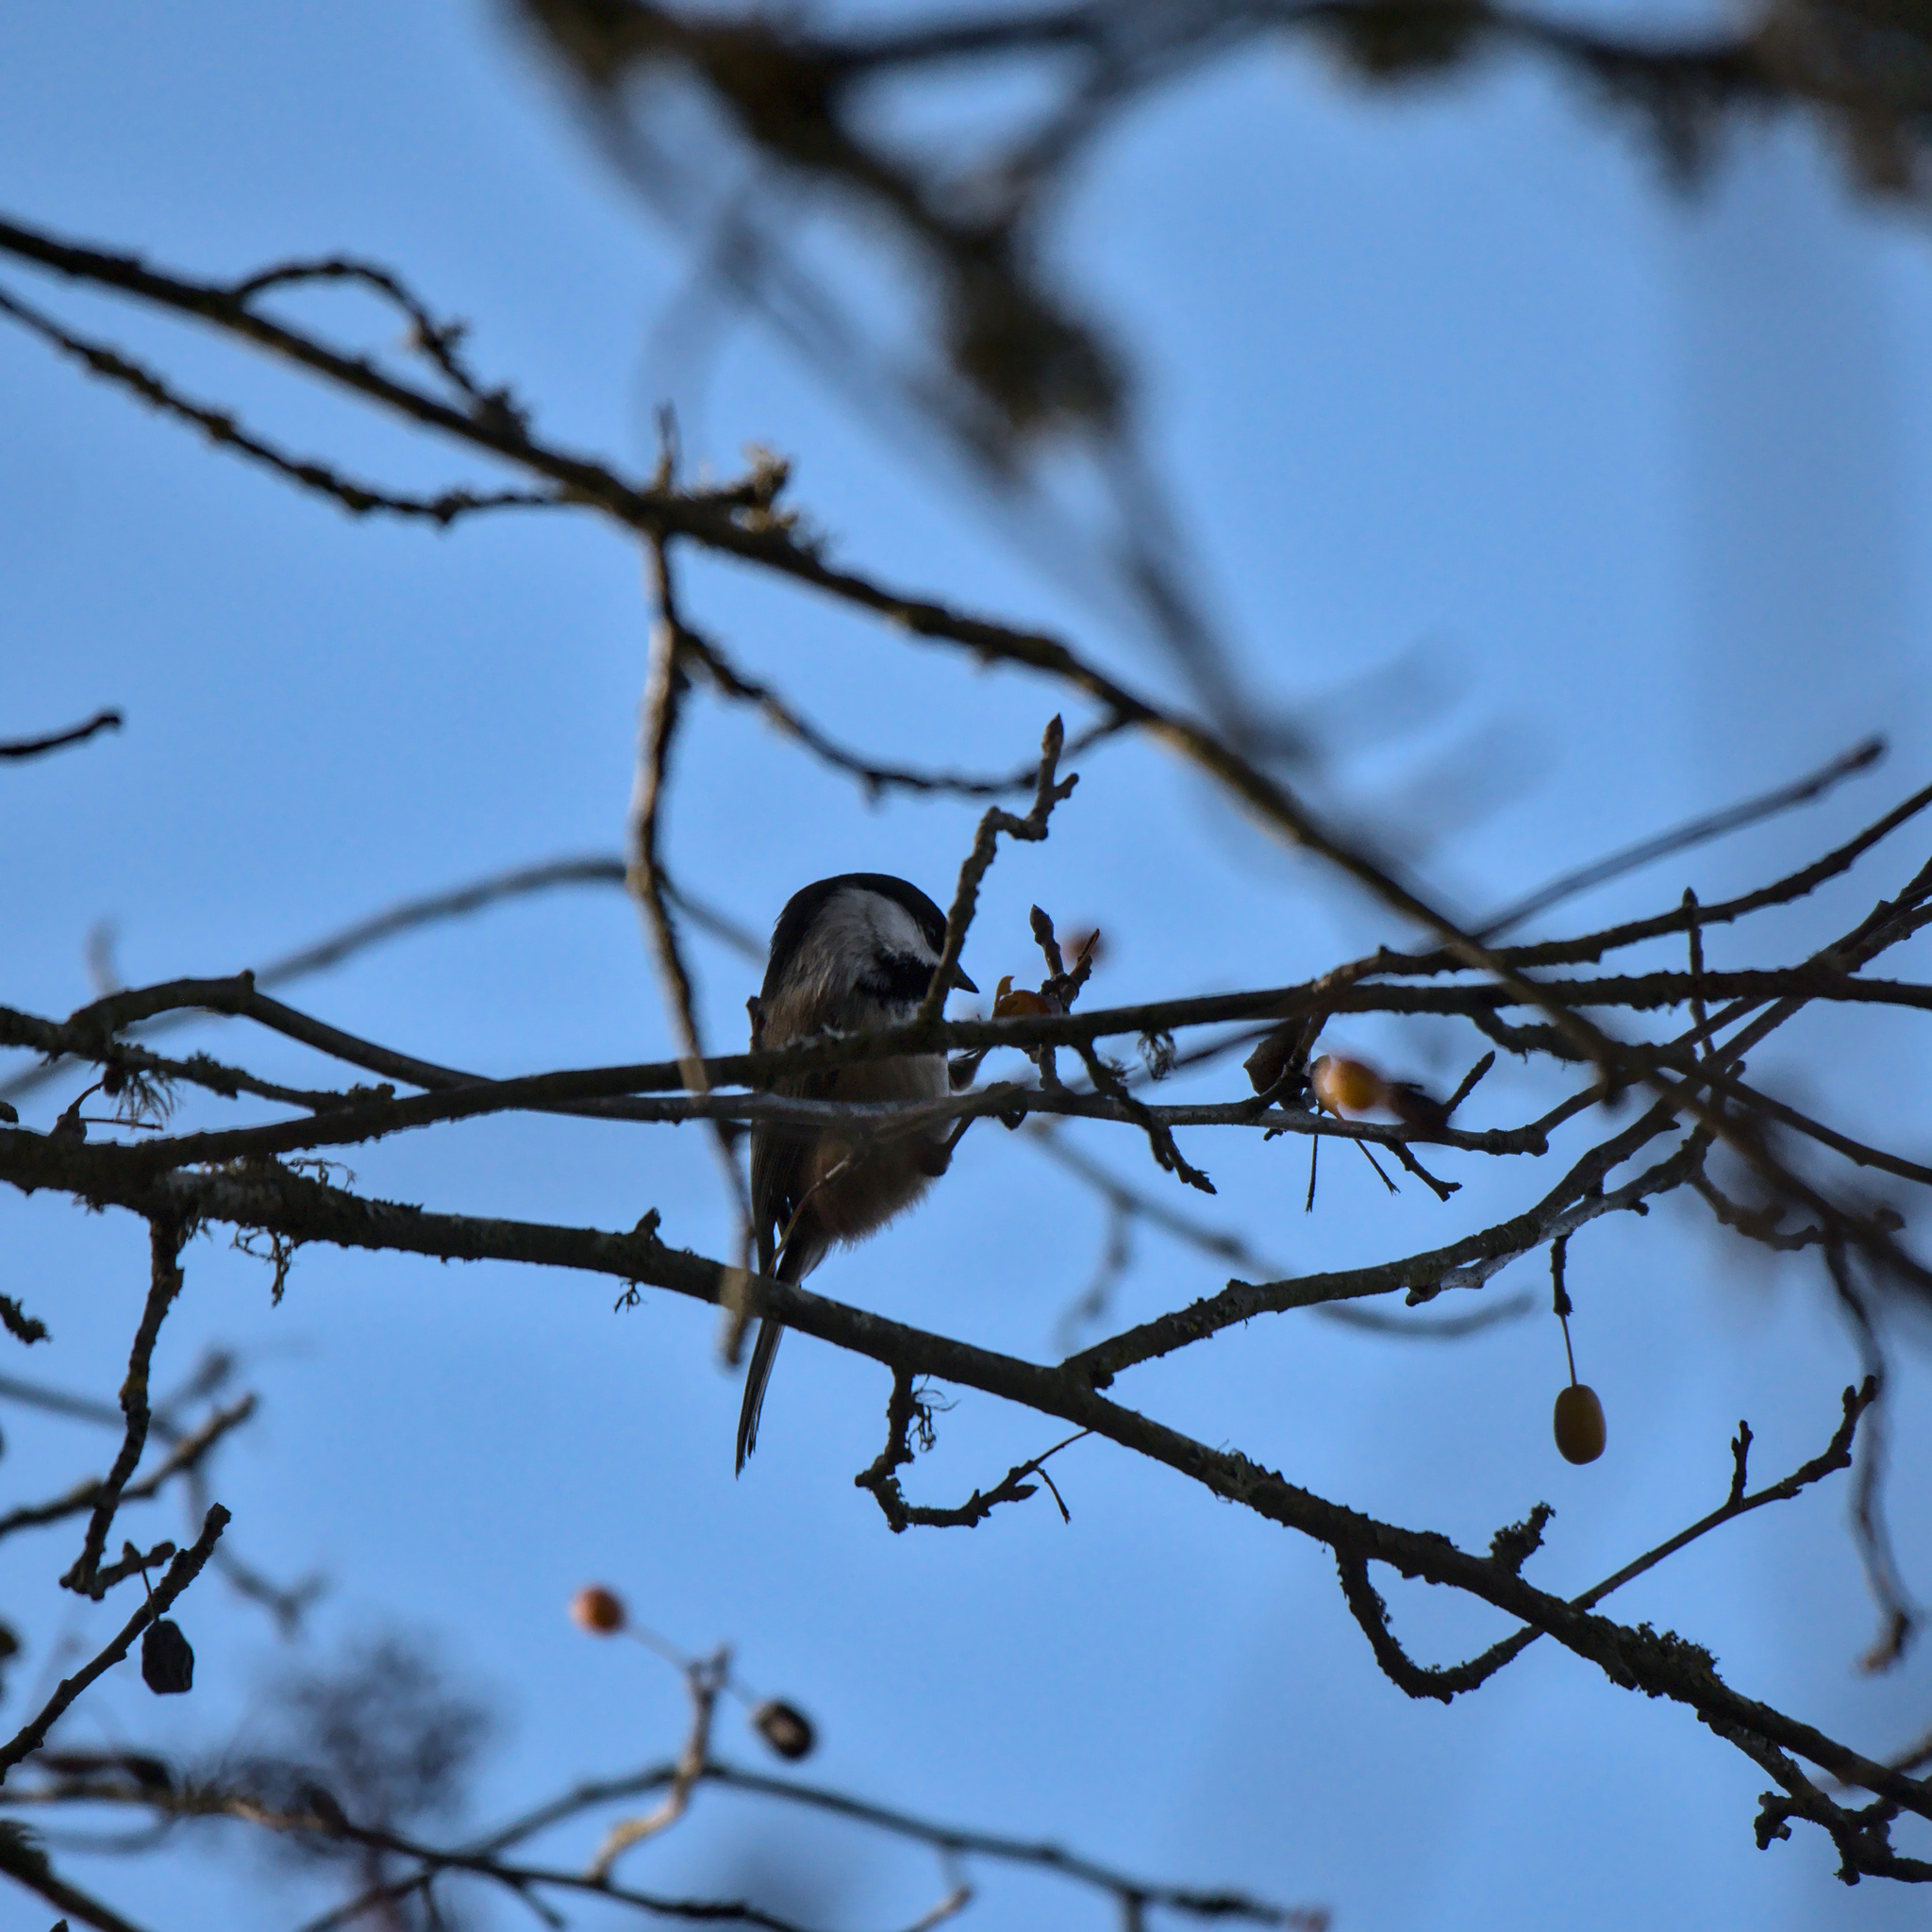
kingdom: Animalia
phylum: Chordata
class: Aves
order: Passeriformes
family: Paridae
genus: Poecile
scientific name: Poecile atricapillus
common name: Black-capped chickadee
